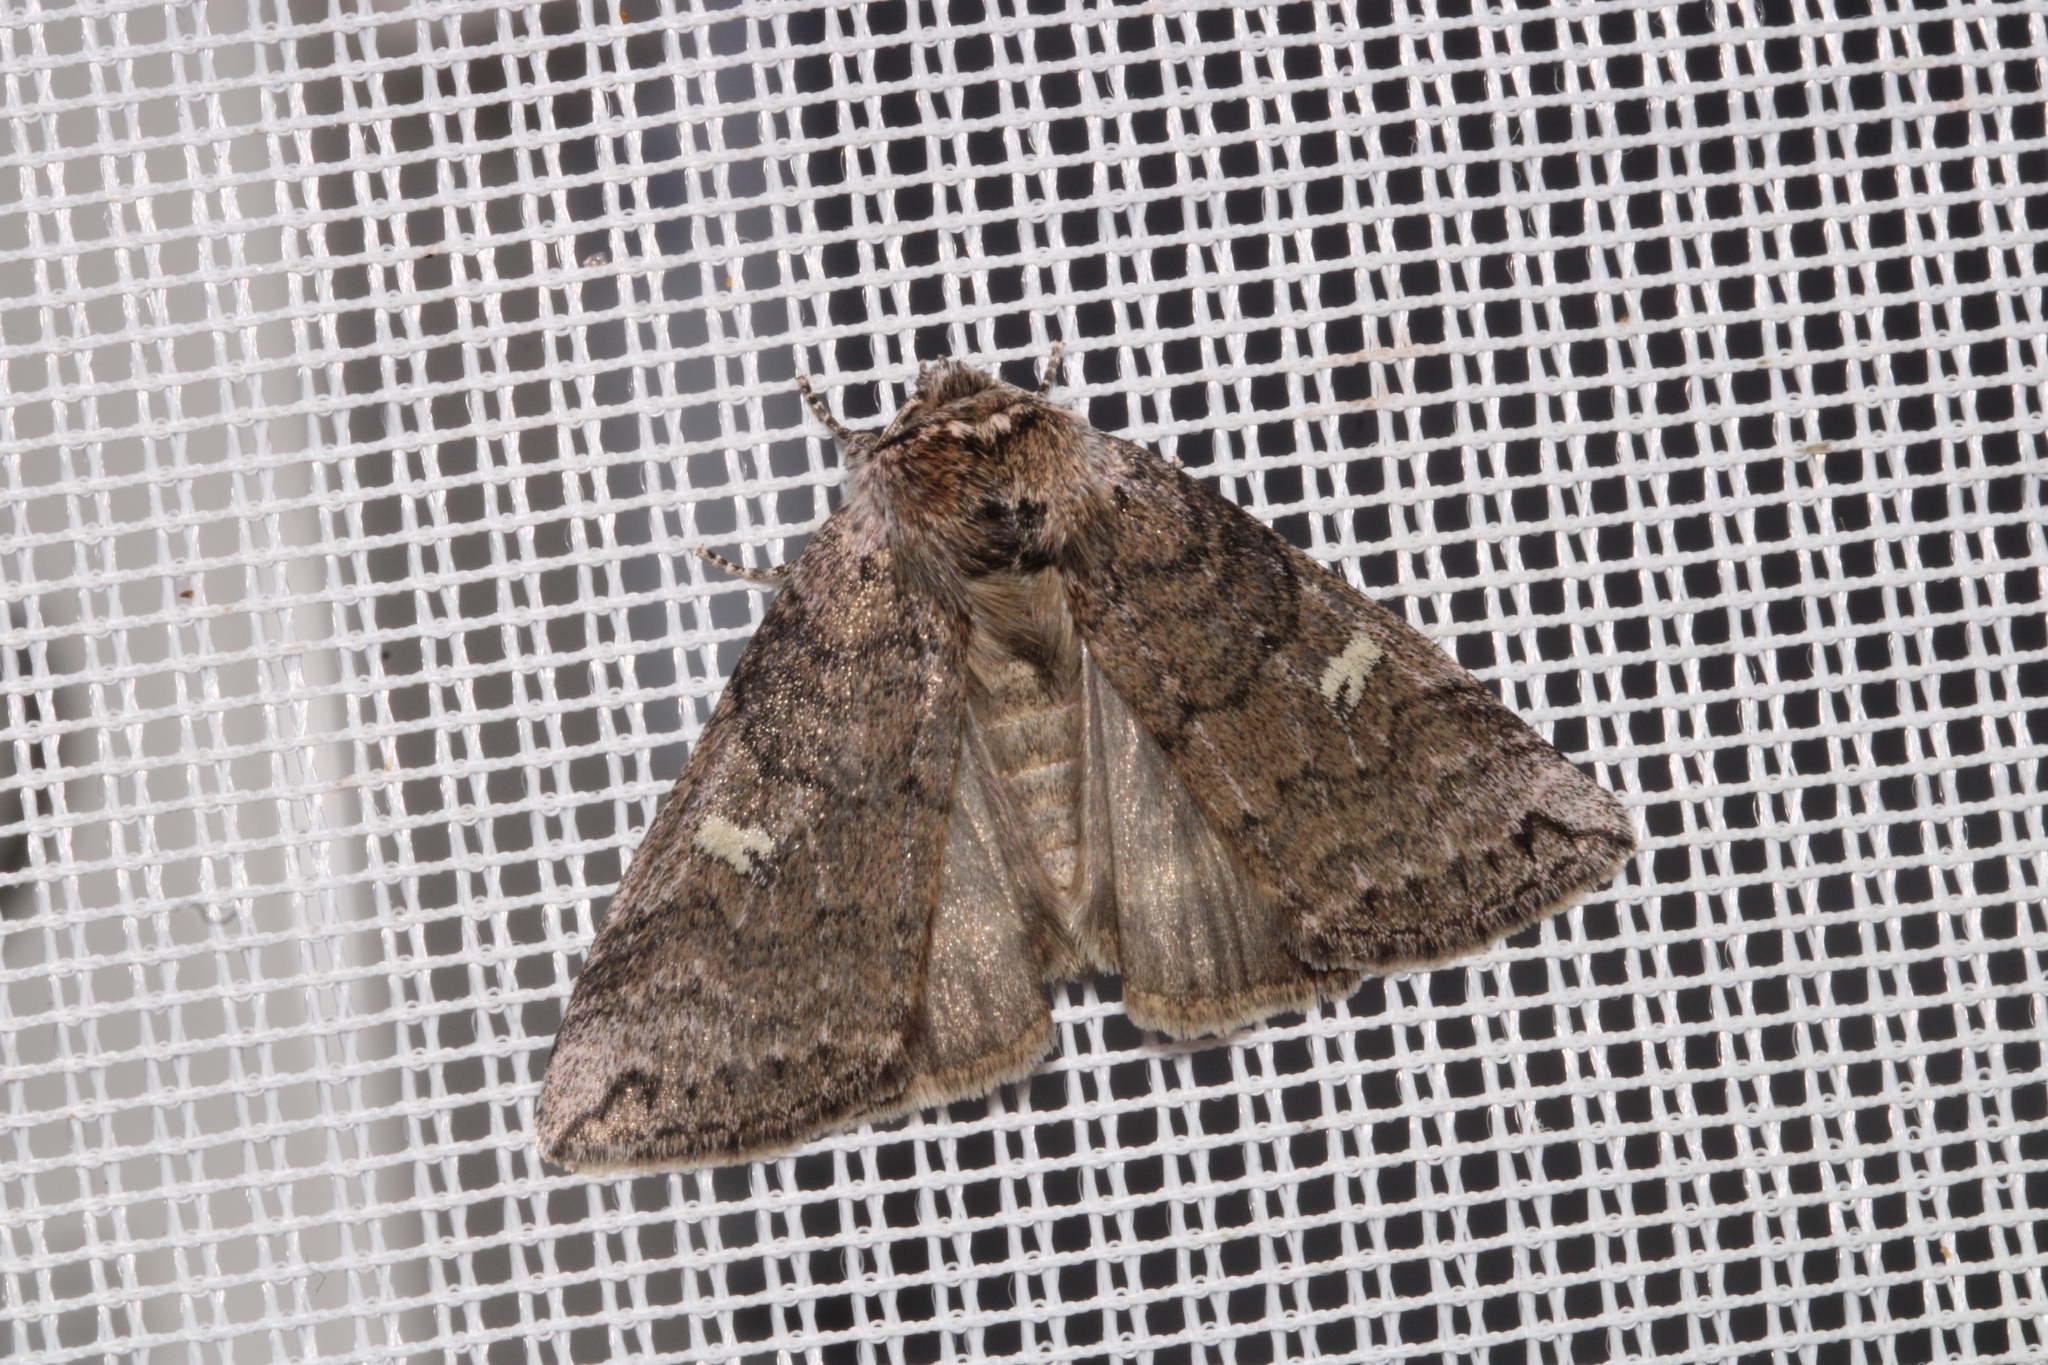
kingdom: Animalia
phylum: Arthropoda
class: Insecta
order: Lepidoptera
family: Drepanidae
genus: Tethea
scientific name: Tethea or
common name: Poplar lutestring
